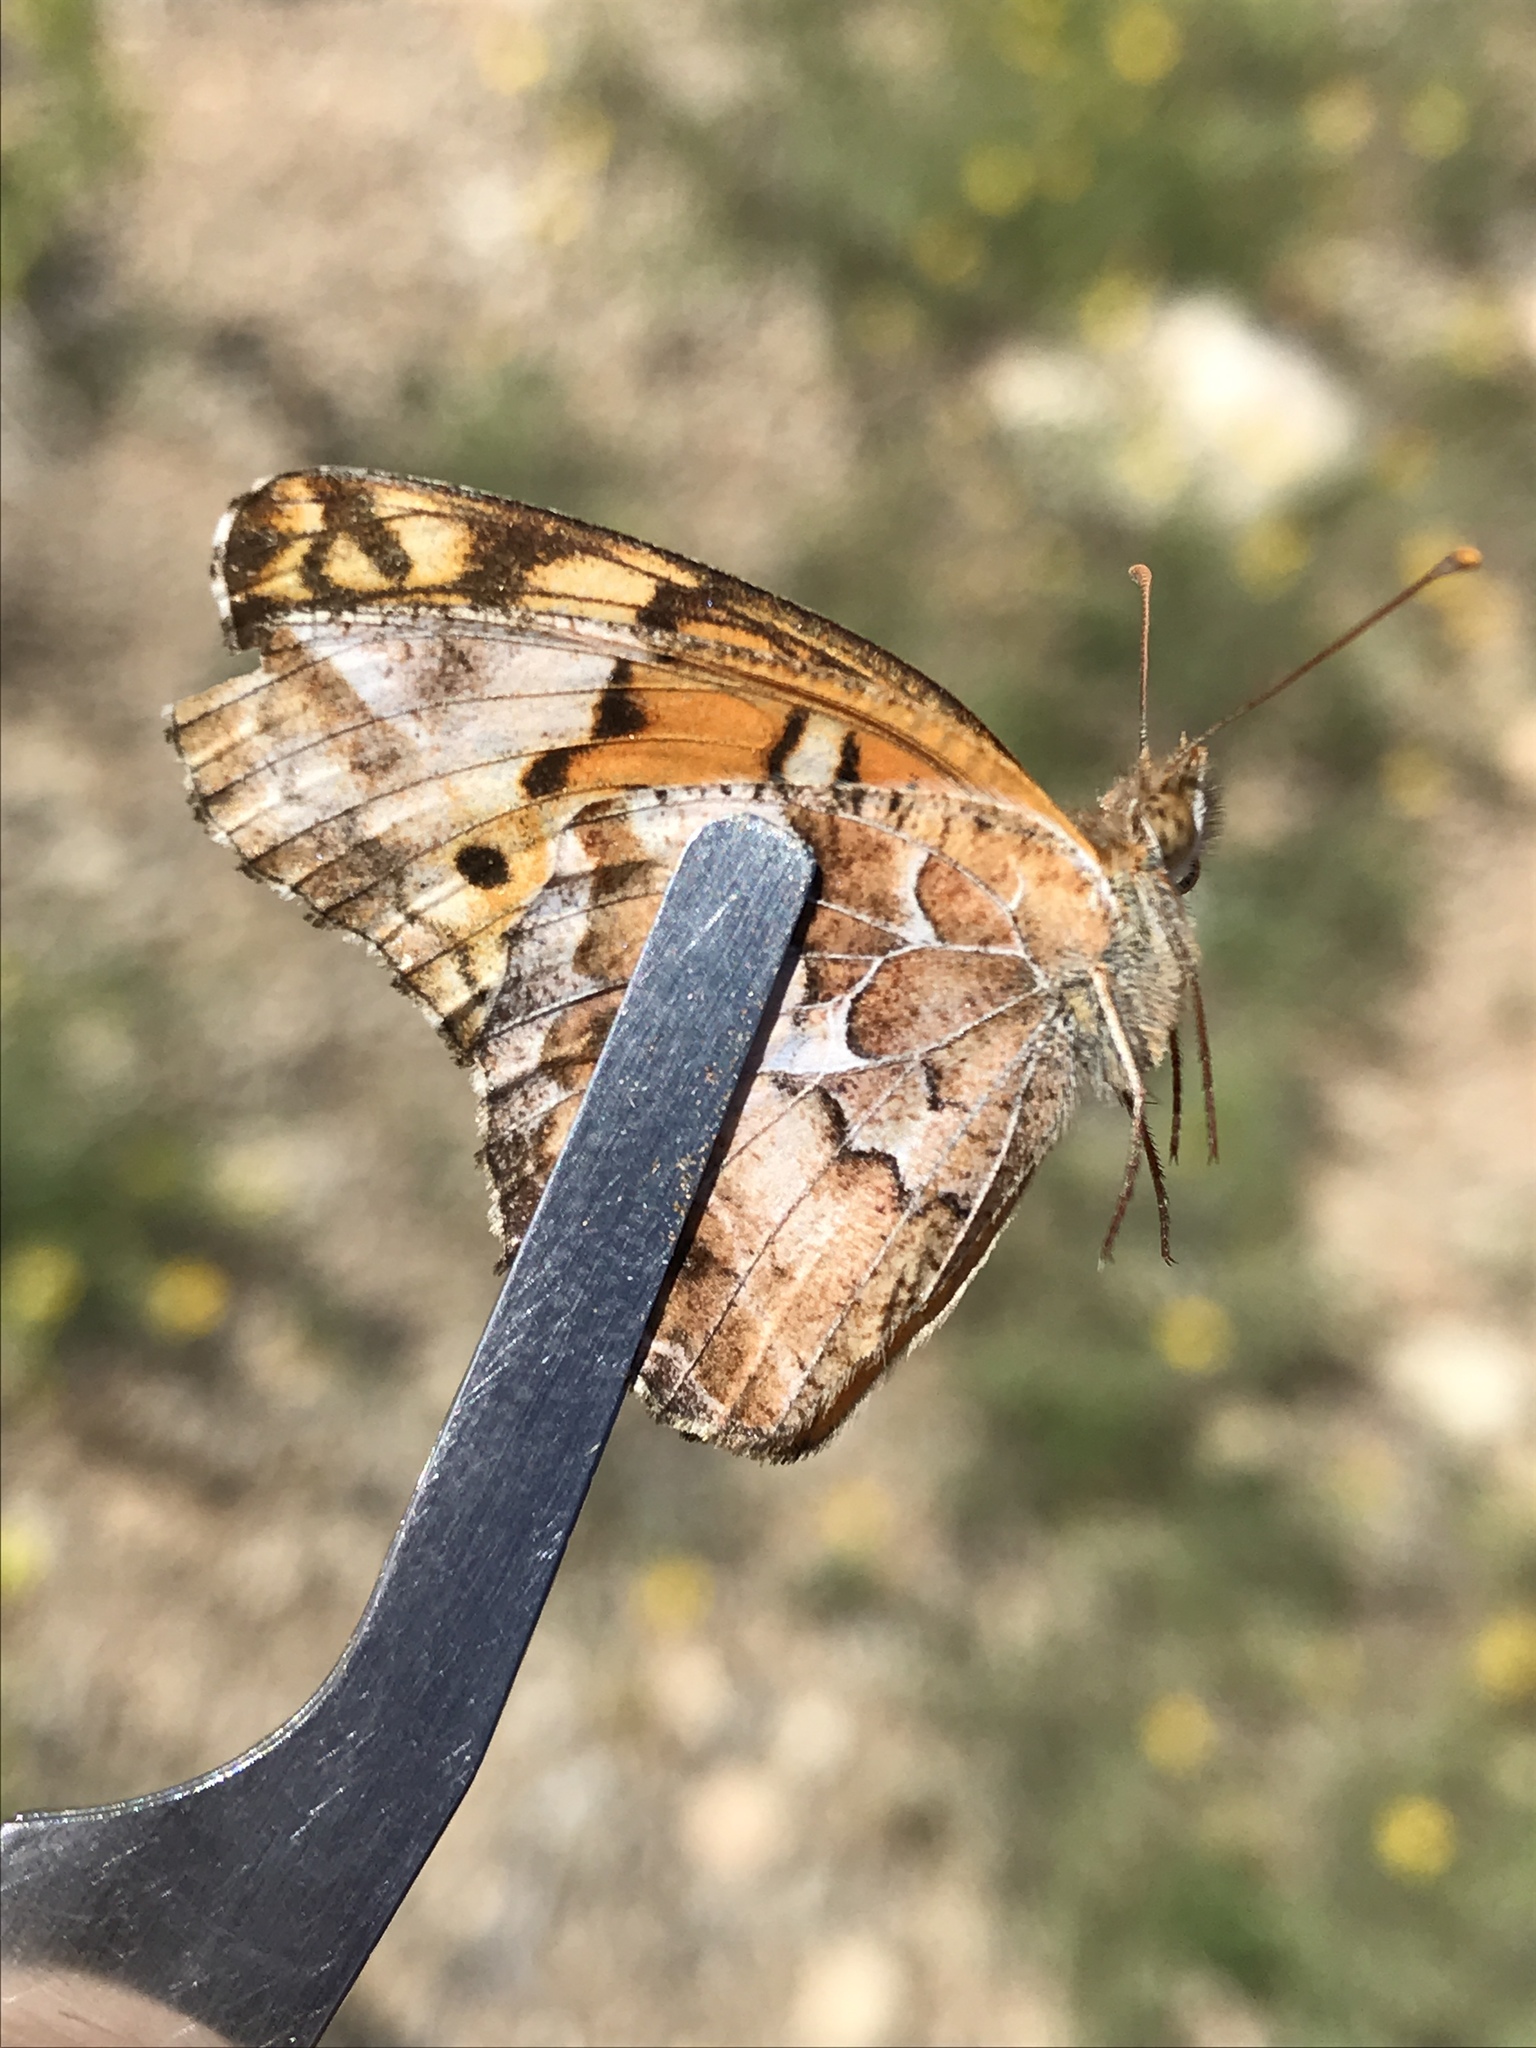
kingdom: Animalia
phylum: Arthropoda
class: Insecta
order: Lepidoptera
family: Nymphalidae
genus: Euptoieta
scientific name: Euptoieta claudia
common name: Variegated fritillary
